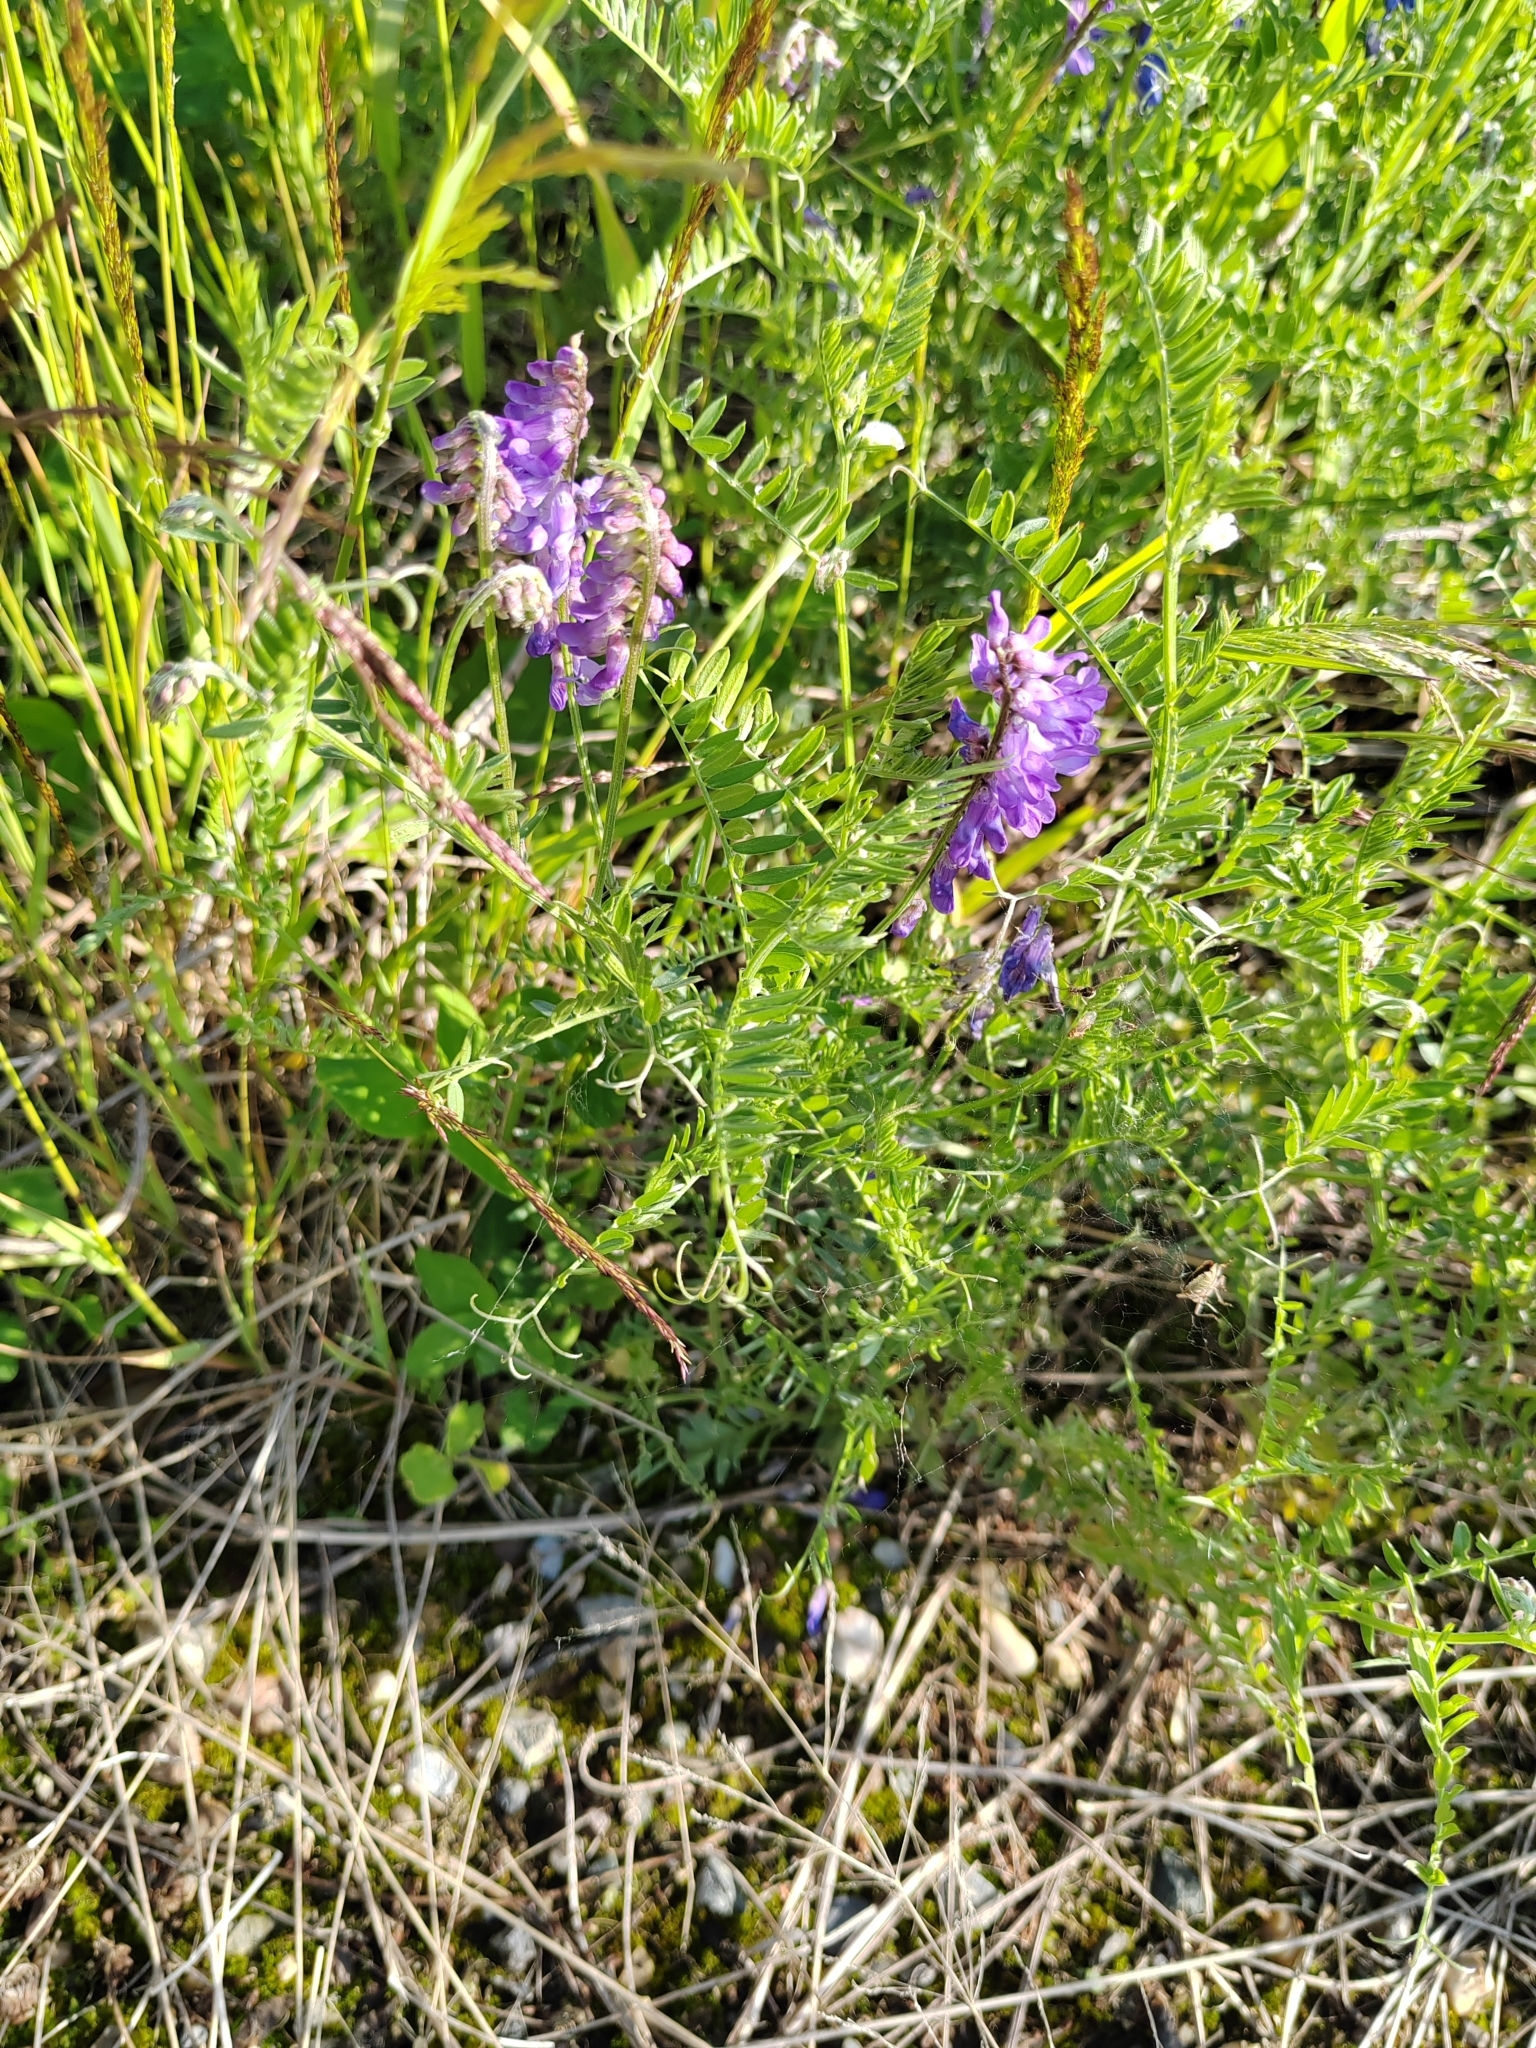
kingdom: Plantae
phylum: Tracheophyta
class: Magnoliopsida
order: Fabales
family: Fabaceae
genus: Vicia
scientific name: Vicia cracca
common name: Bird vetch
